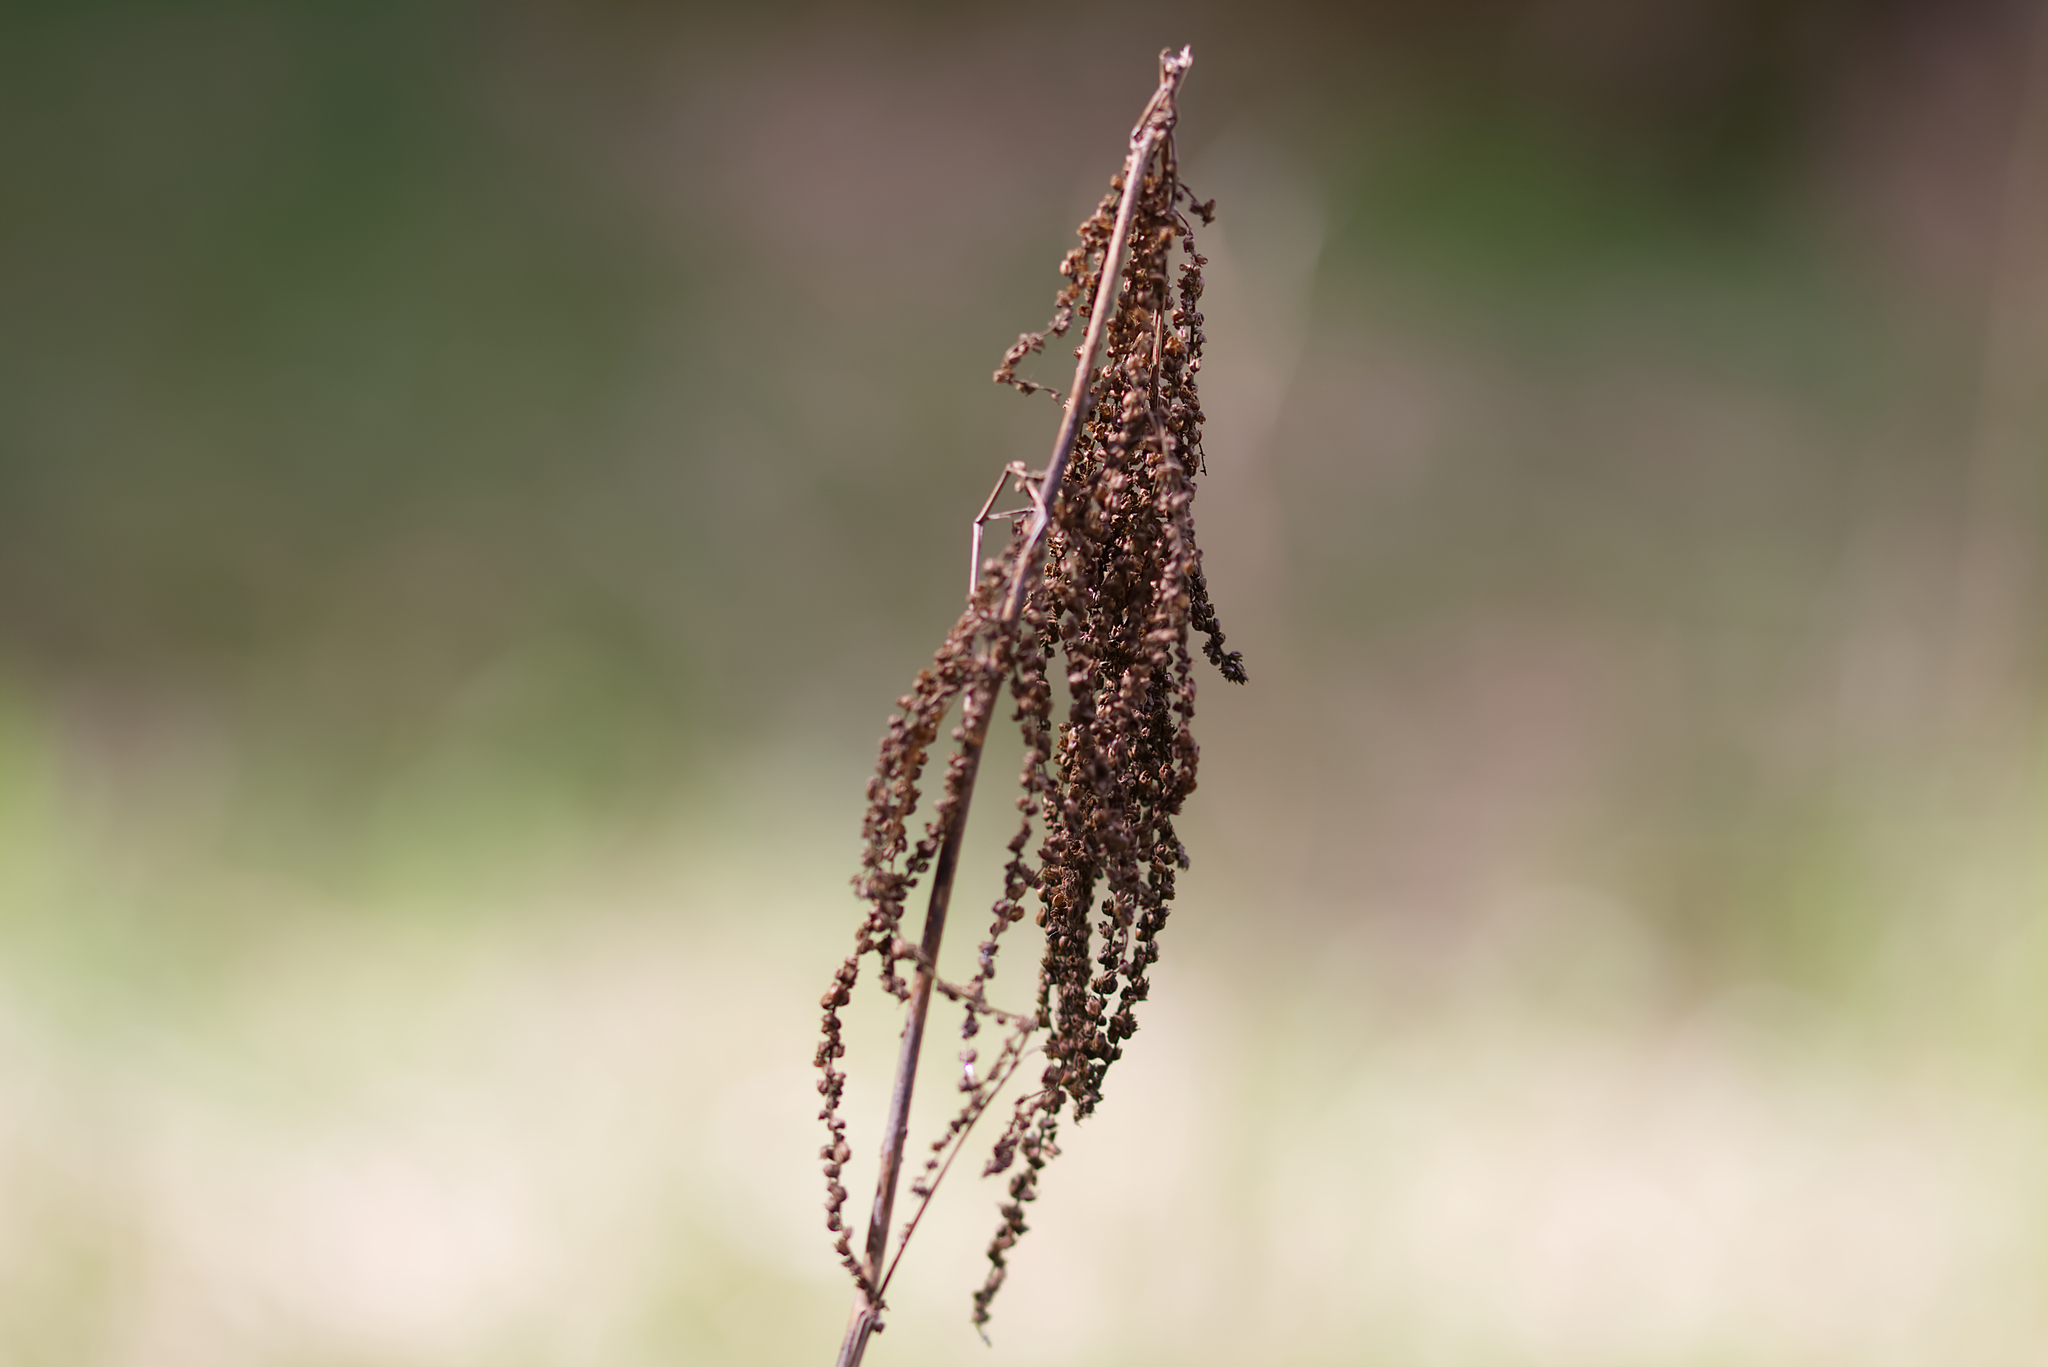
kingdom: Plantae
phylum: Tracheophyta
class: Magnoliopsida
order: Rosales
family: Rosaceae
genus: Aruncus
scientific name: Aruncus dioicus
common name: Buck's-beard
